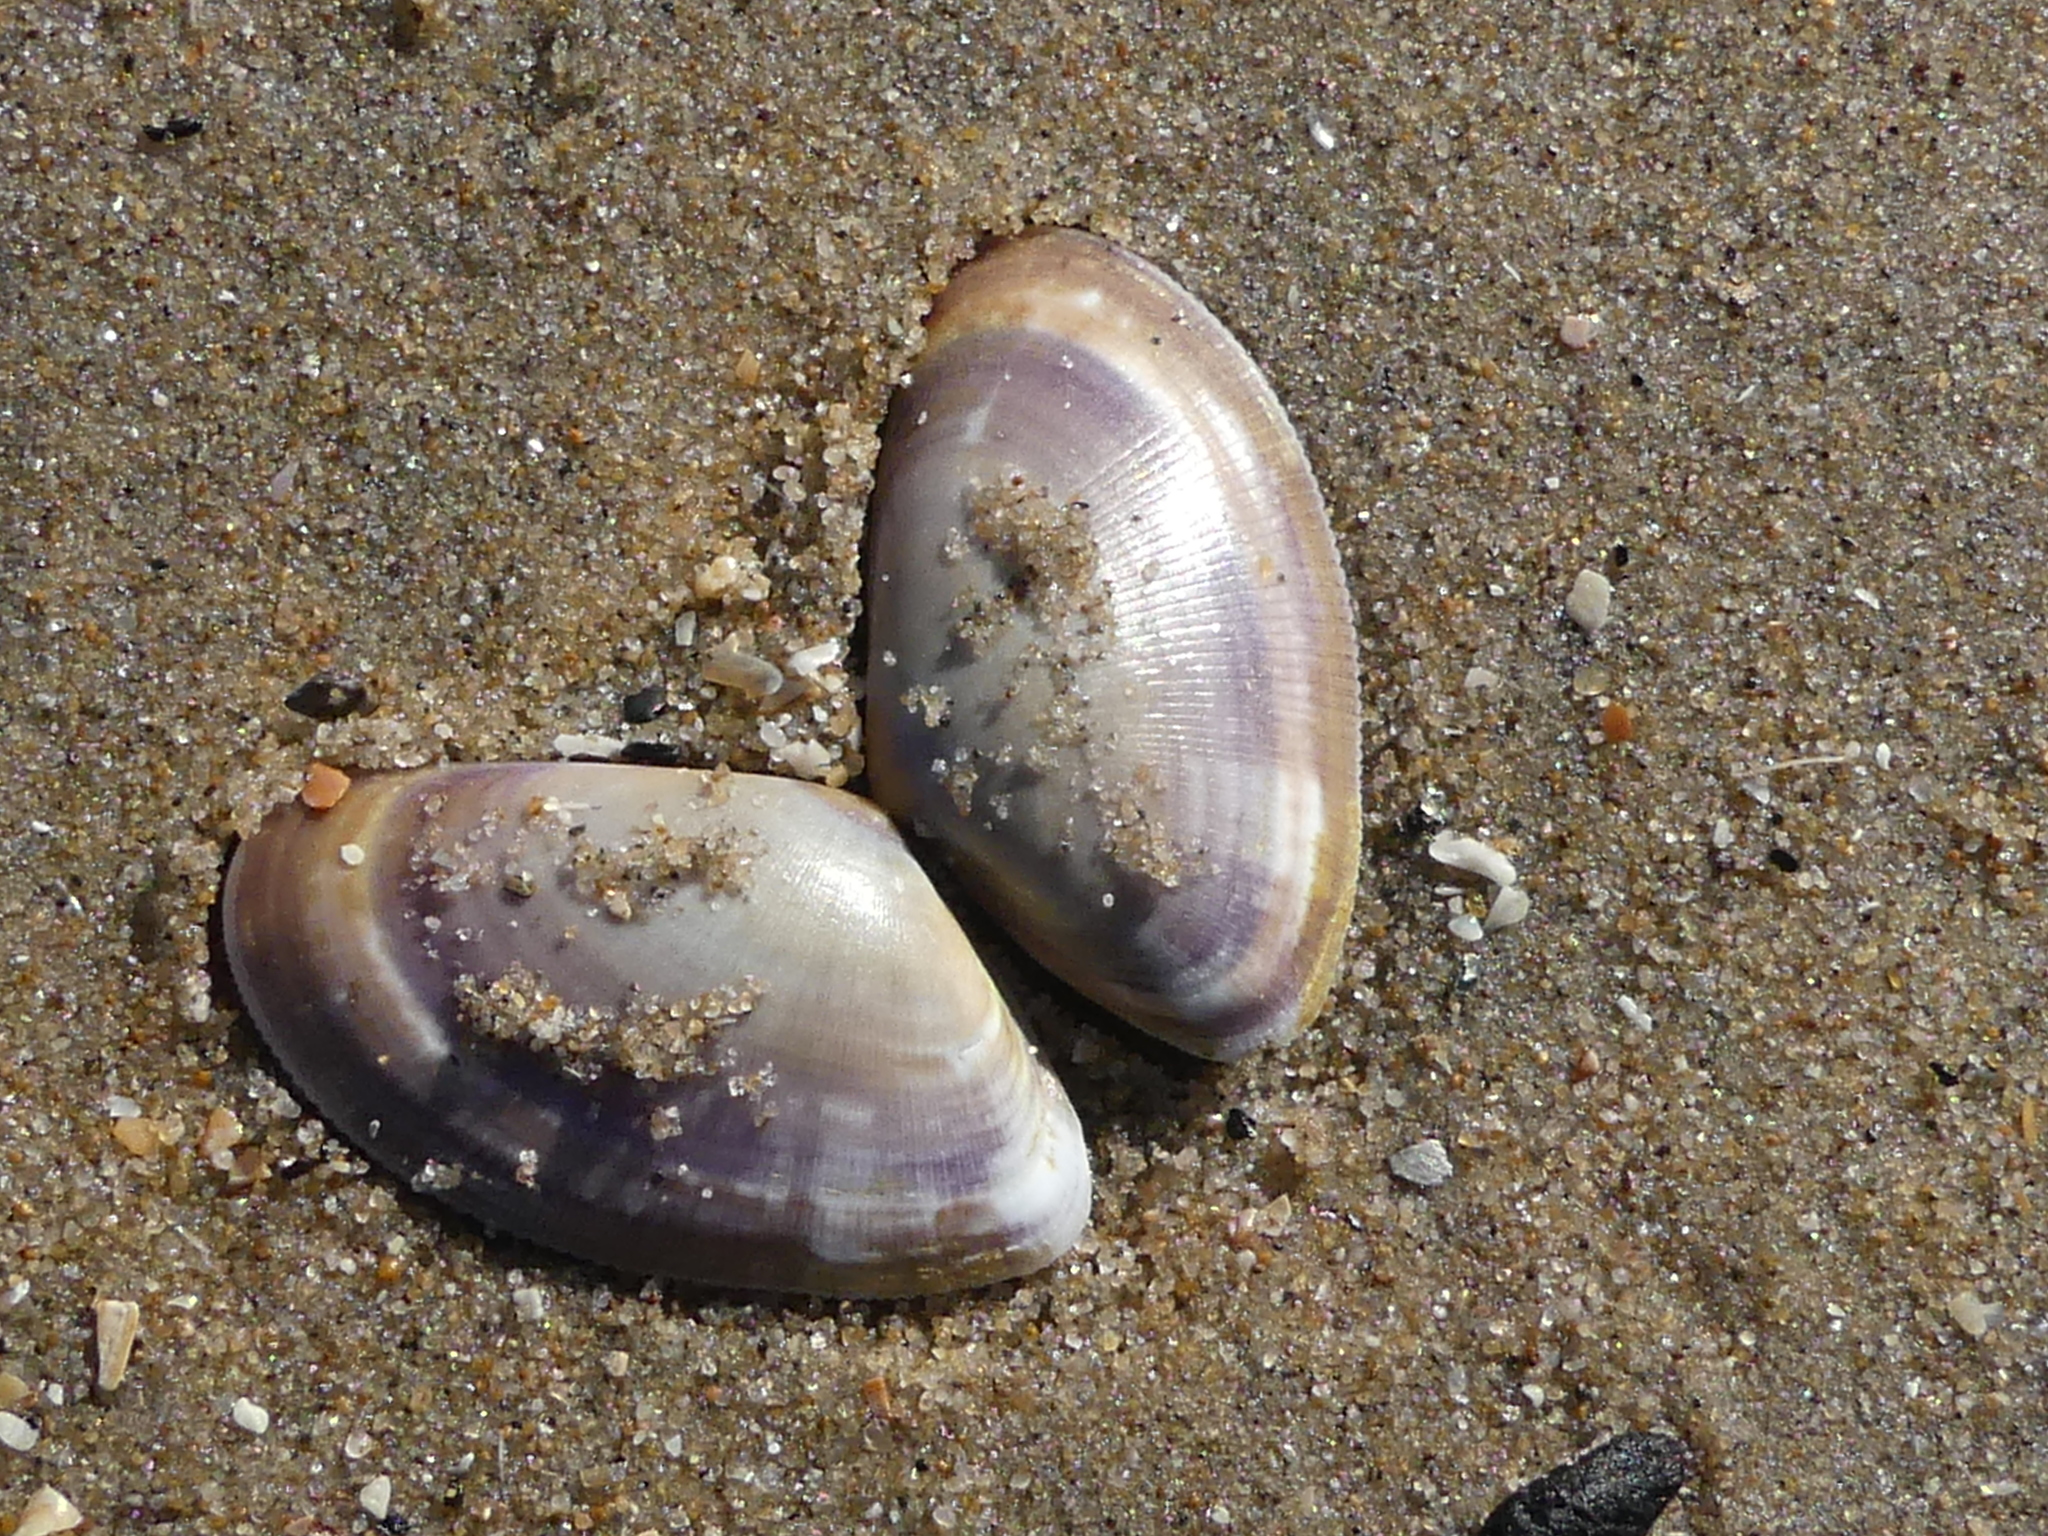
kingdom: Animalia
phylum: Mollusca
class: Bivalvia
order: Cardiida
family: Donacidae
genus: Donax
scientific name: Donax vittatus
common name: Banded wedge-shell
